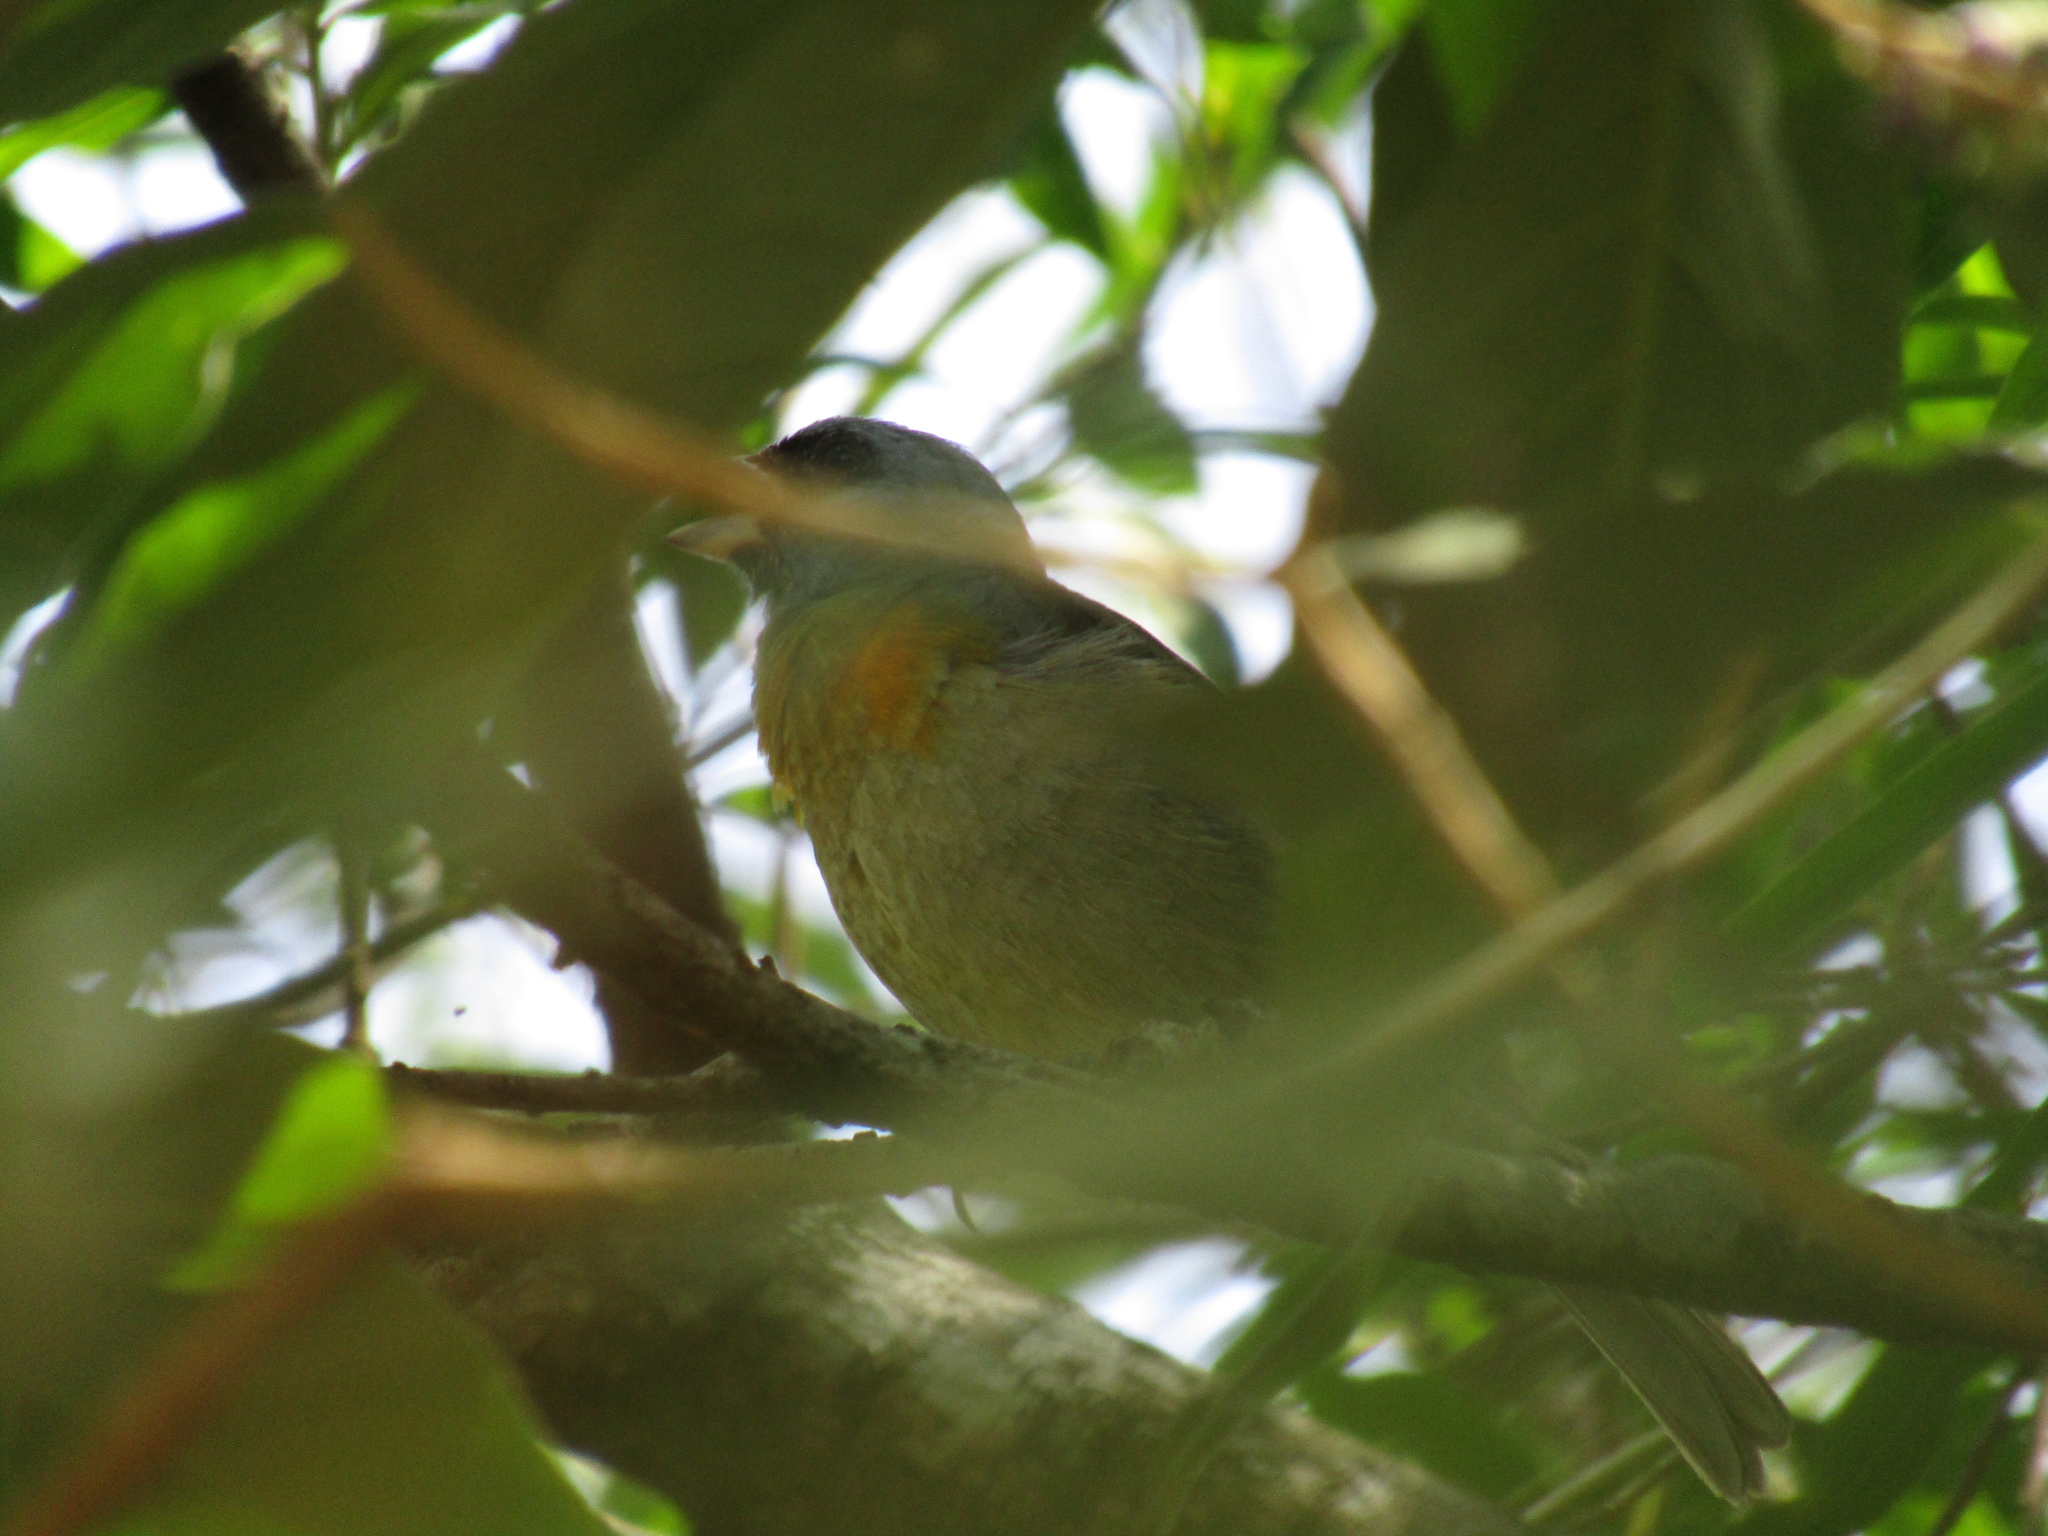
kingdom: Animalia
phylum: Chordata
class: Aves
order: Passeriformes
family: Thraupidae
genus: Rauenia
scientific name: Rauenia bonariensis
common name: Blue-and-yellow tanager
